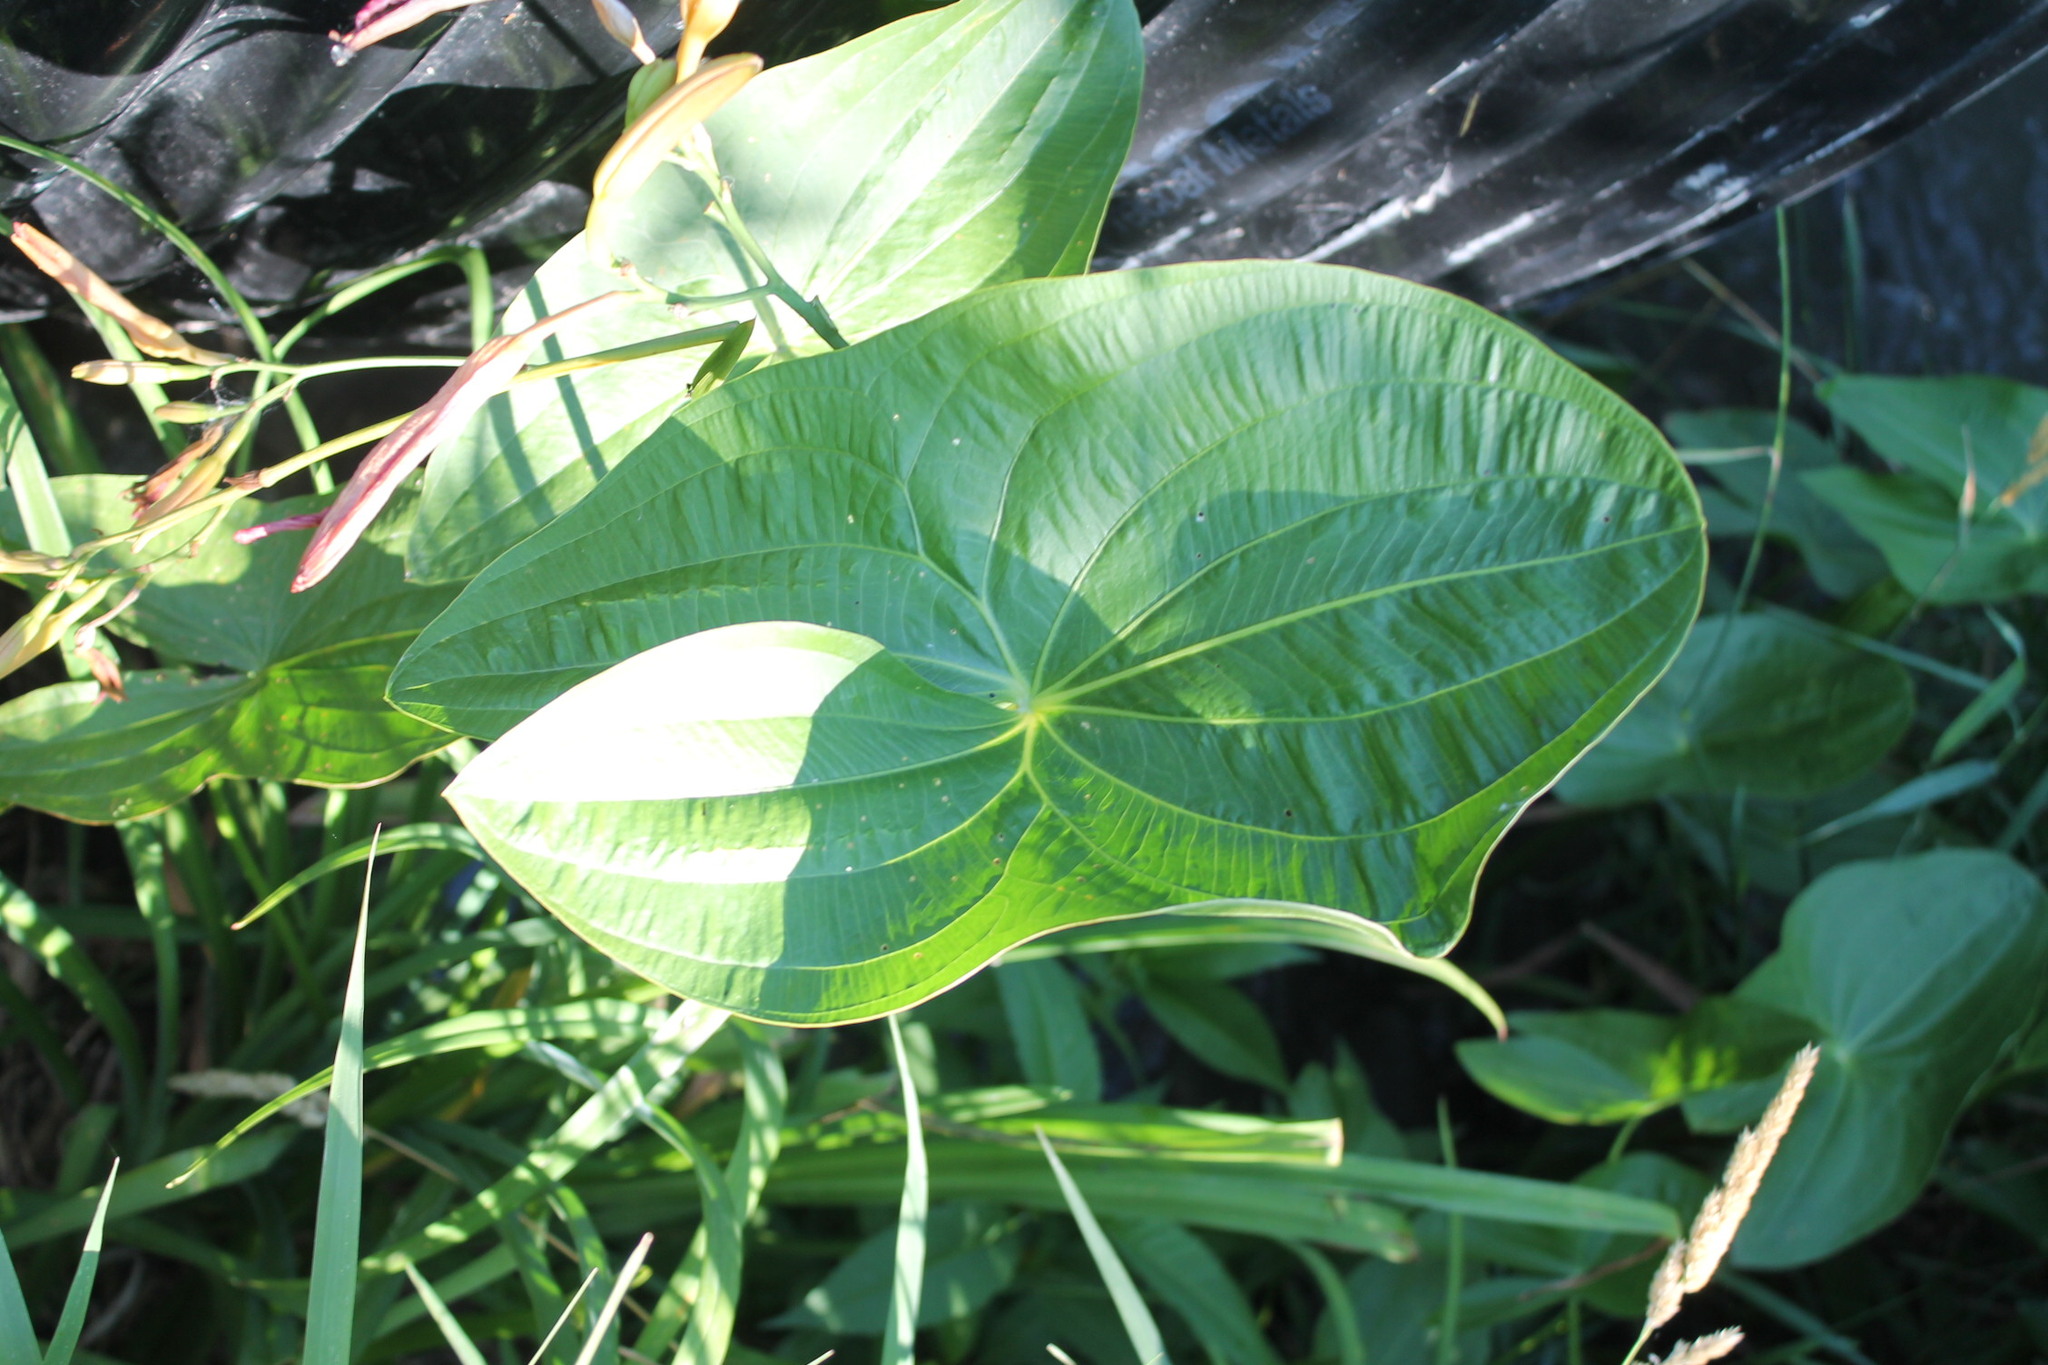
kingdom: Plantae
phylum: Tracheophyta
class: Liliopsida
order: Alismatales
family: Alismataceae
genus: Sagittaria
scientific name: Sagittaria
